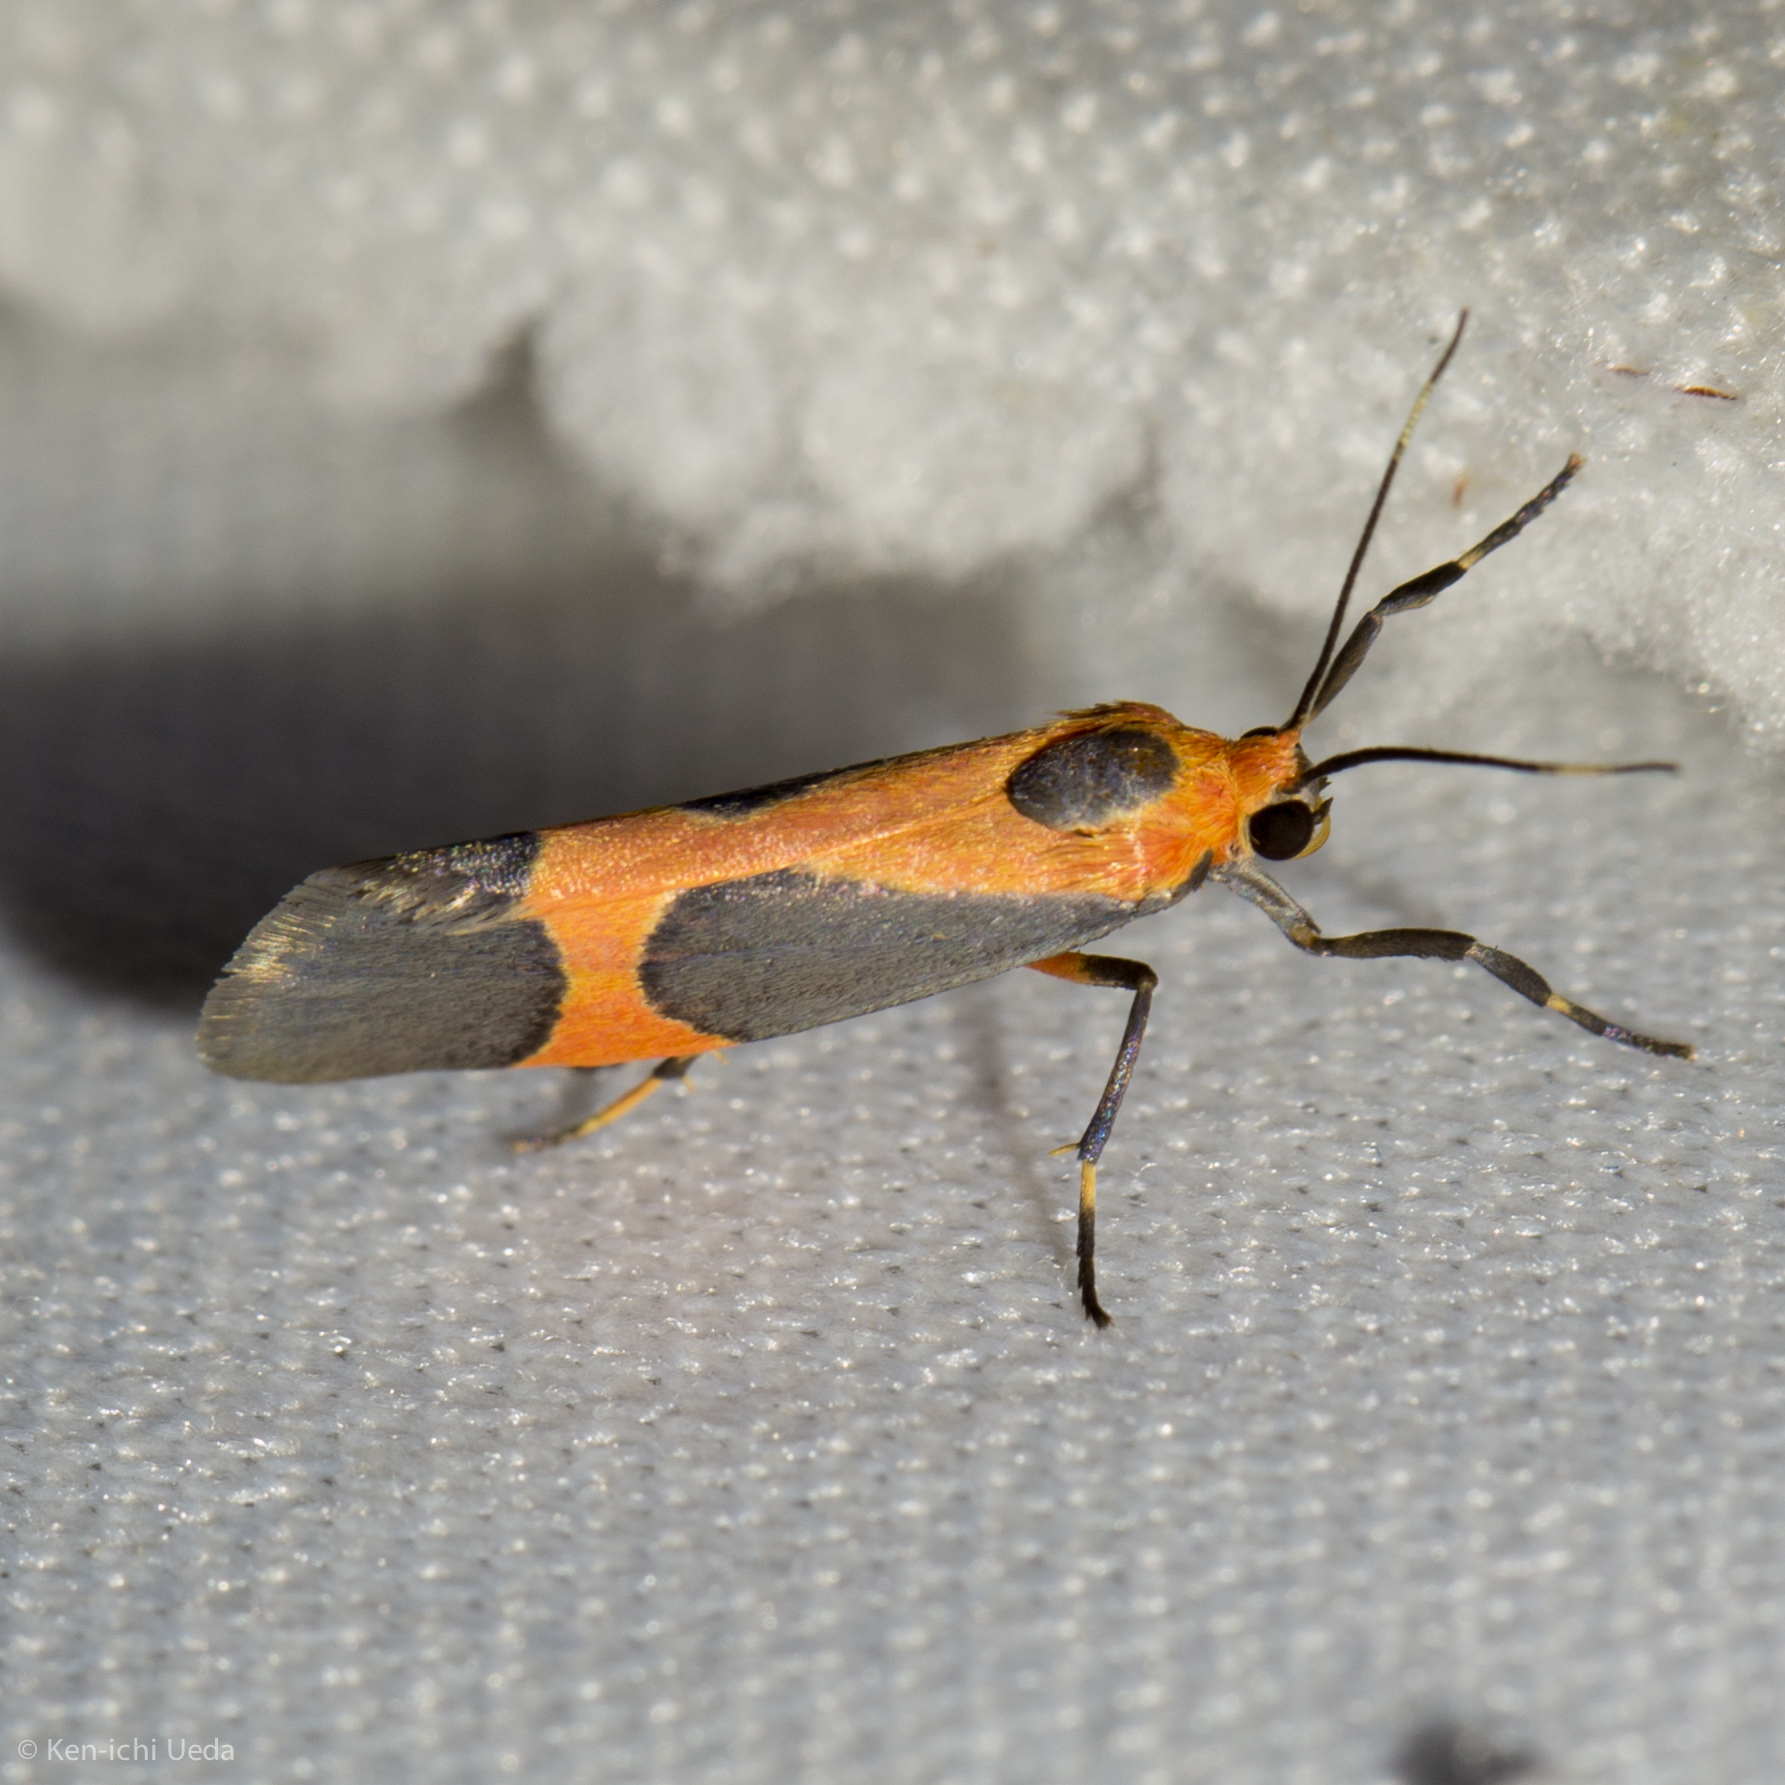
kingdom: Animalia
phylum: Arthropoda
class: Insecta
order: Lepidoptera
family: Erebidae
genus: Cisthene
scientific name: Cisthene martini
